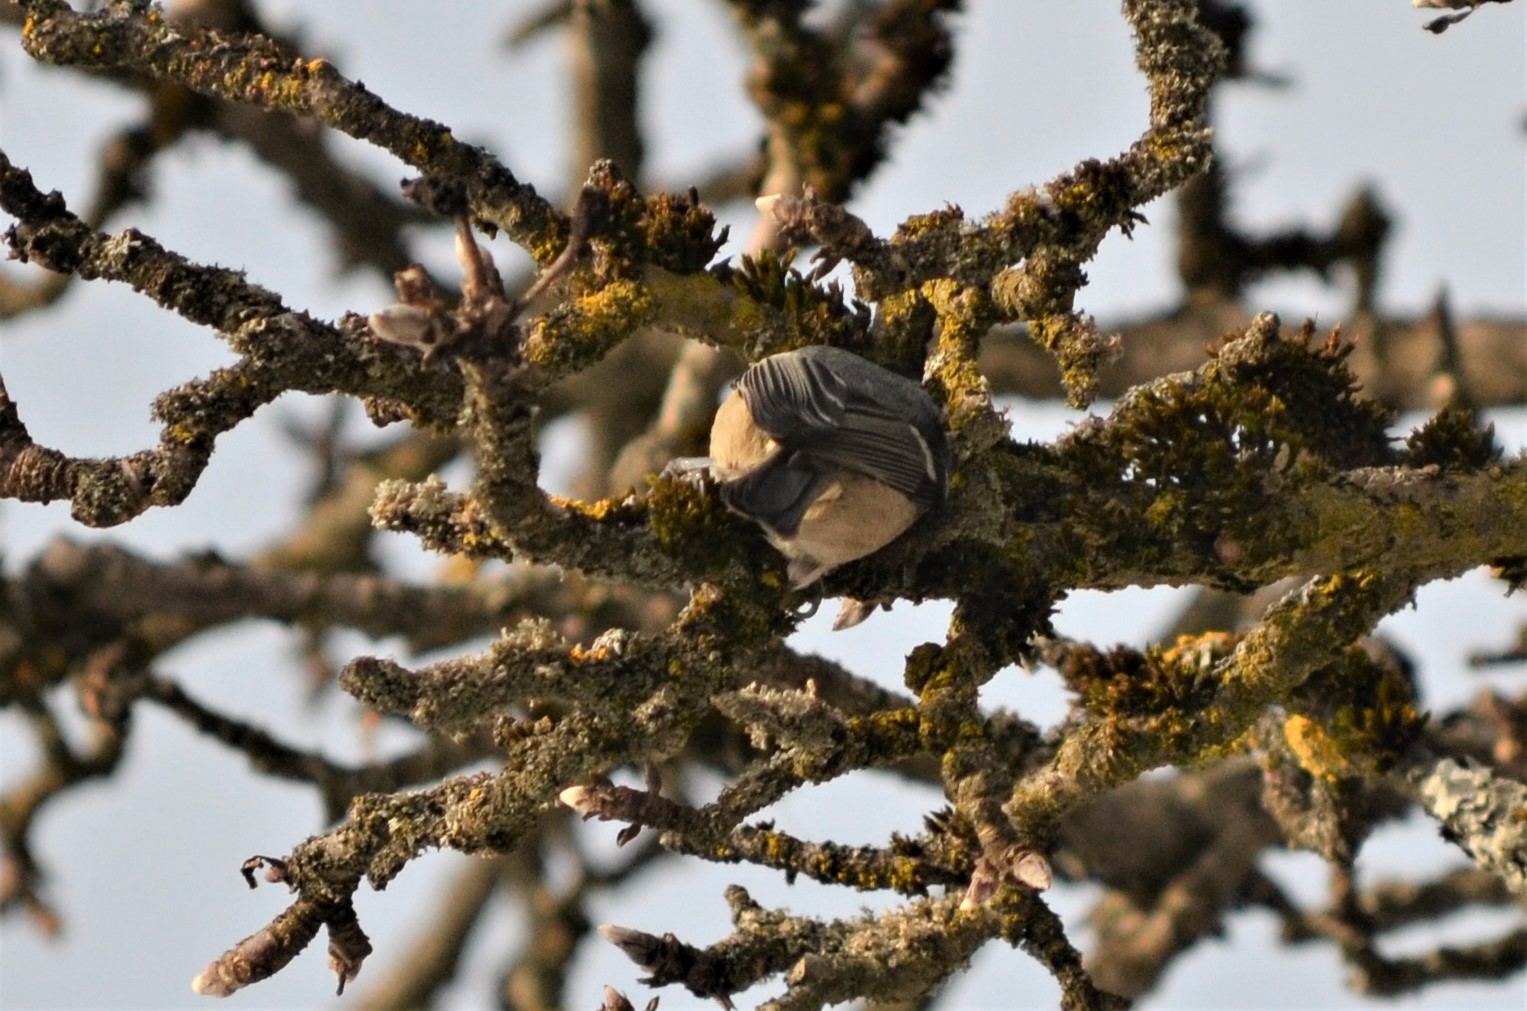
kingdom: Animalia
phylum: Chordata
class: Aves
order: Passeriformes
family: Paridae
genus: Periparus
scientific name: Periparus ater
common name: Coal tit
